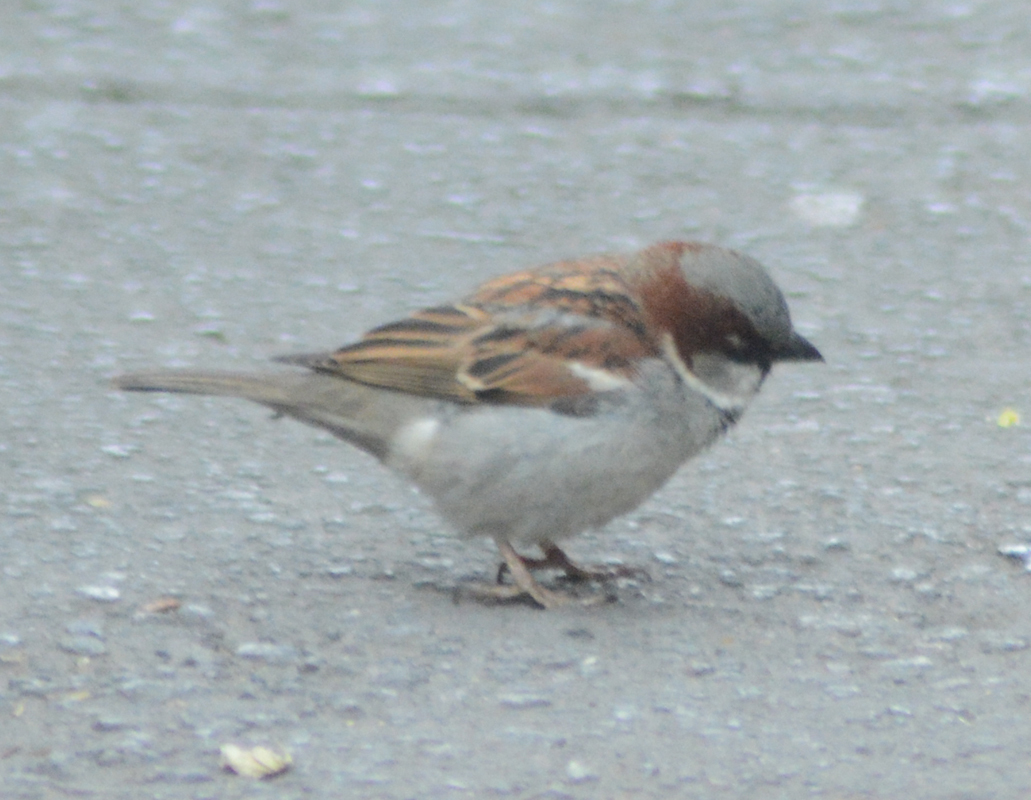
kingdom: Animalia
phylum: Chordata
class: Aves
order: Passeriformes
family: Passeridae
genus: Passer
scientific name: Passer domesticus
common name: House sparrow
